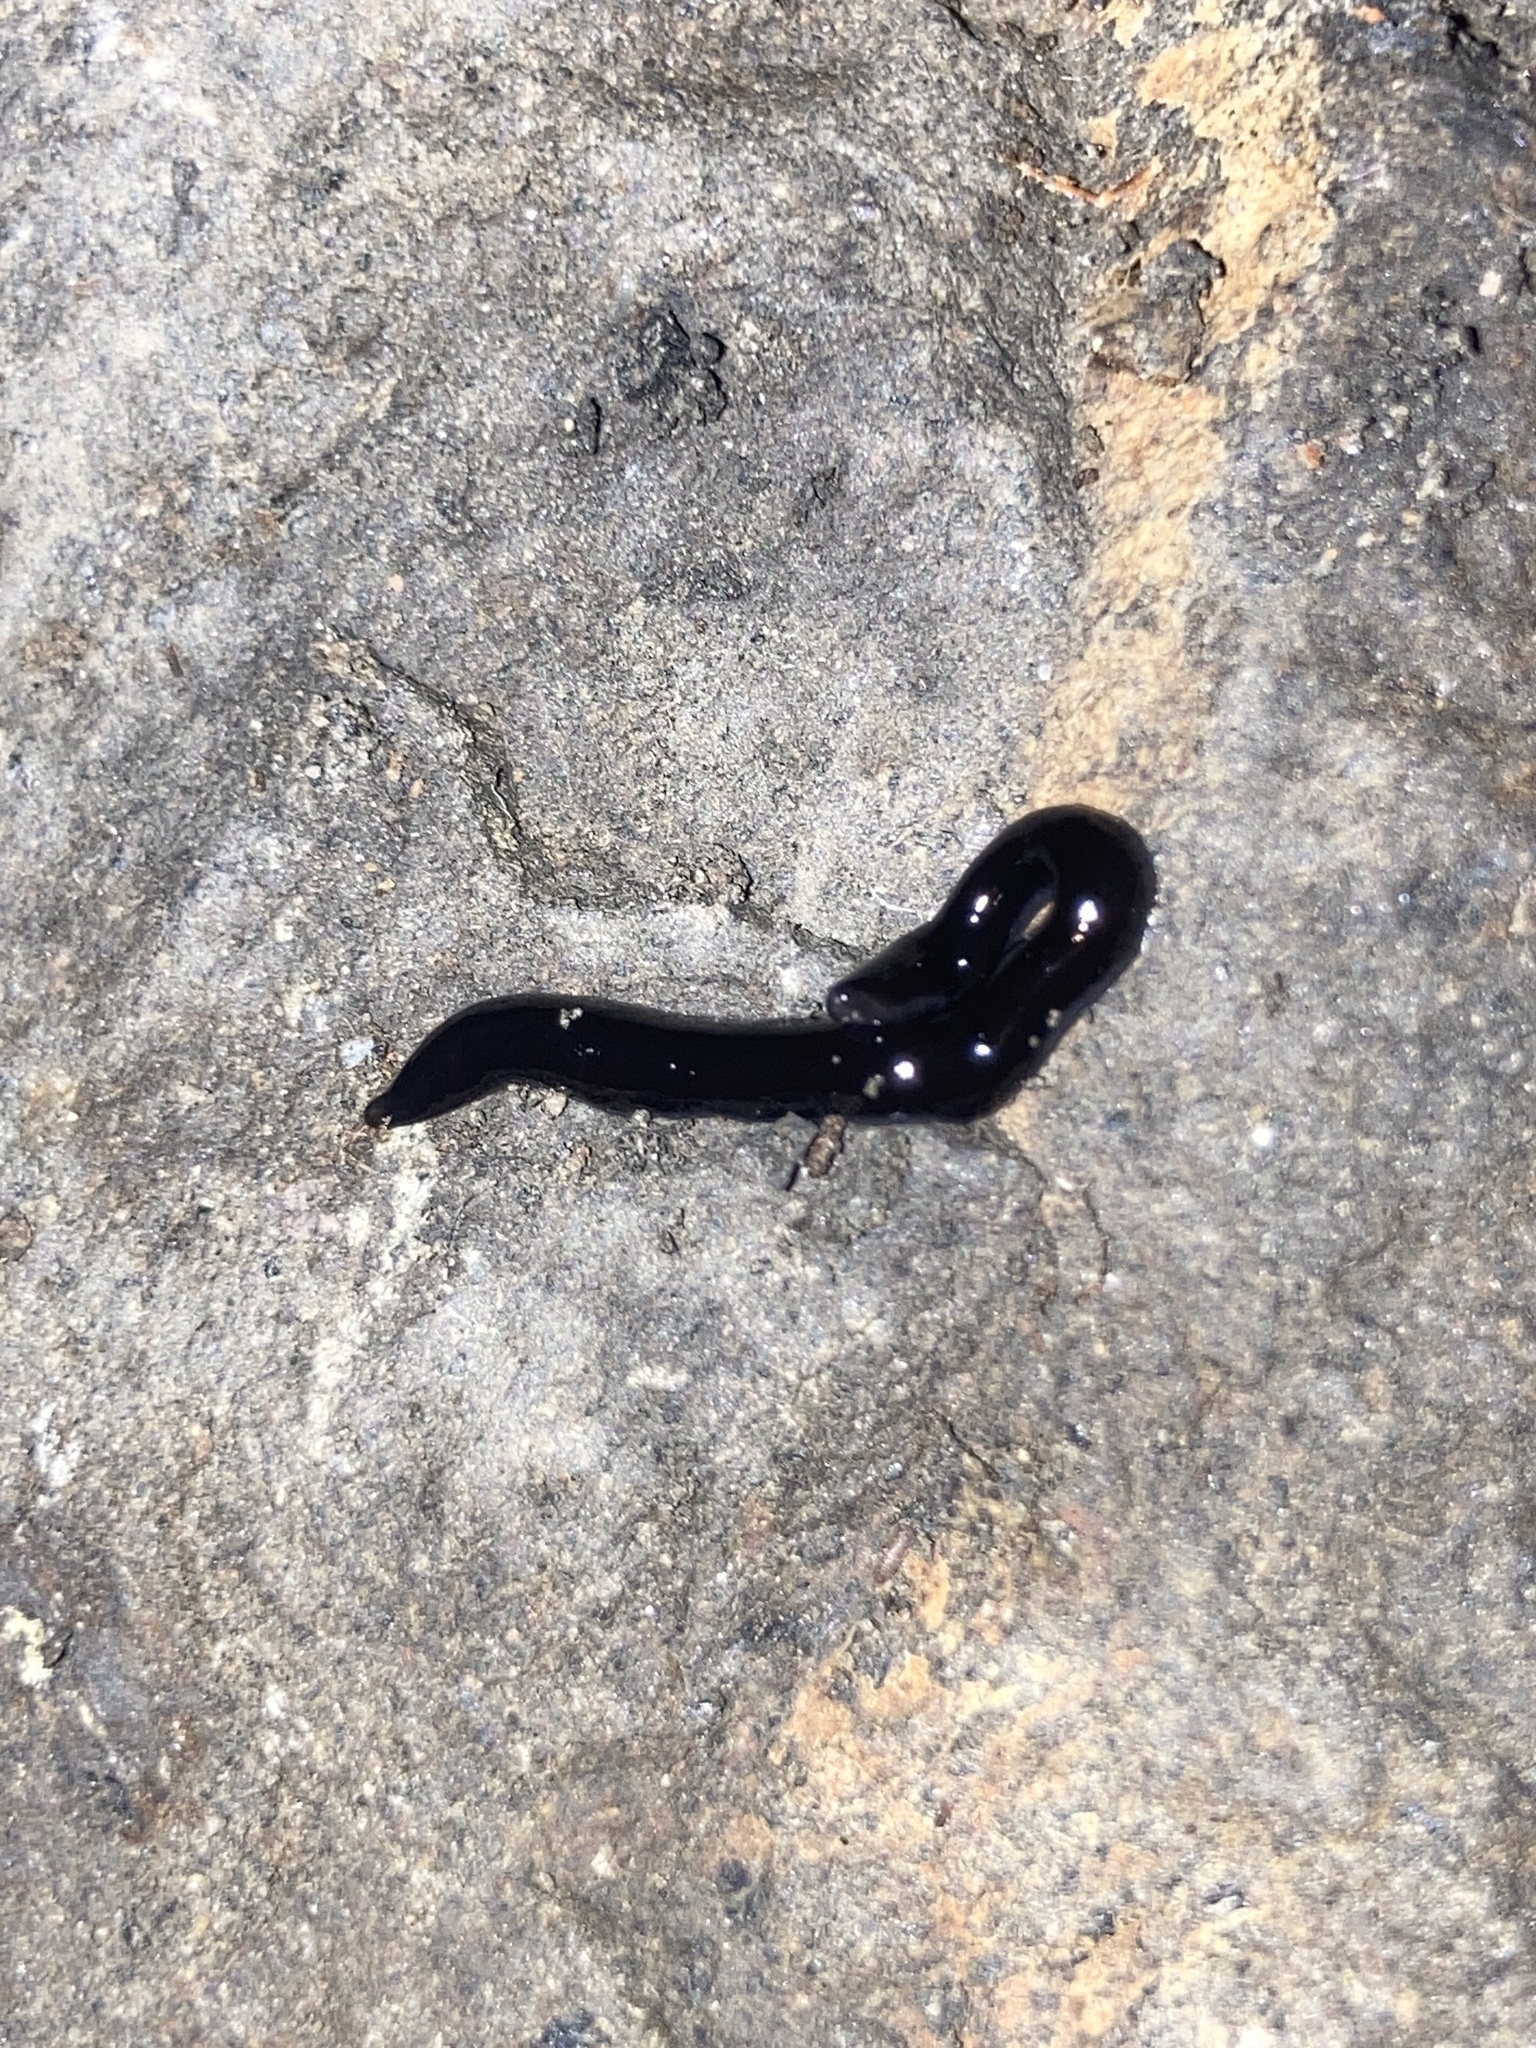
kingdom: Animalia
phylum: Platyhelminthes
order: Tricladida
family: Geoplanidae
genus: Kontikia
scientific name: Kontikia atrata
